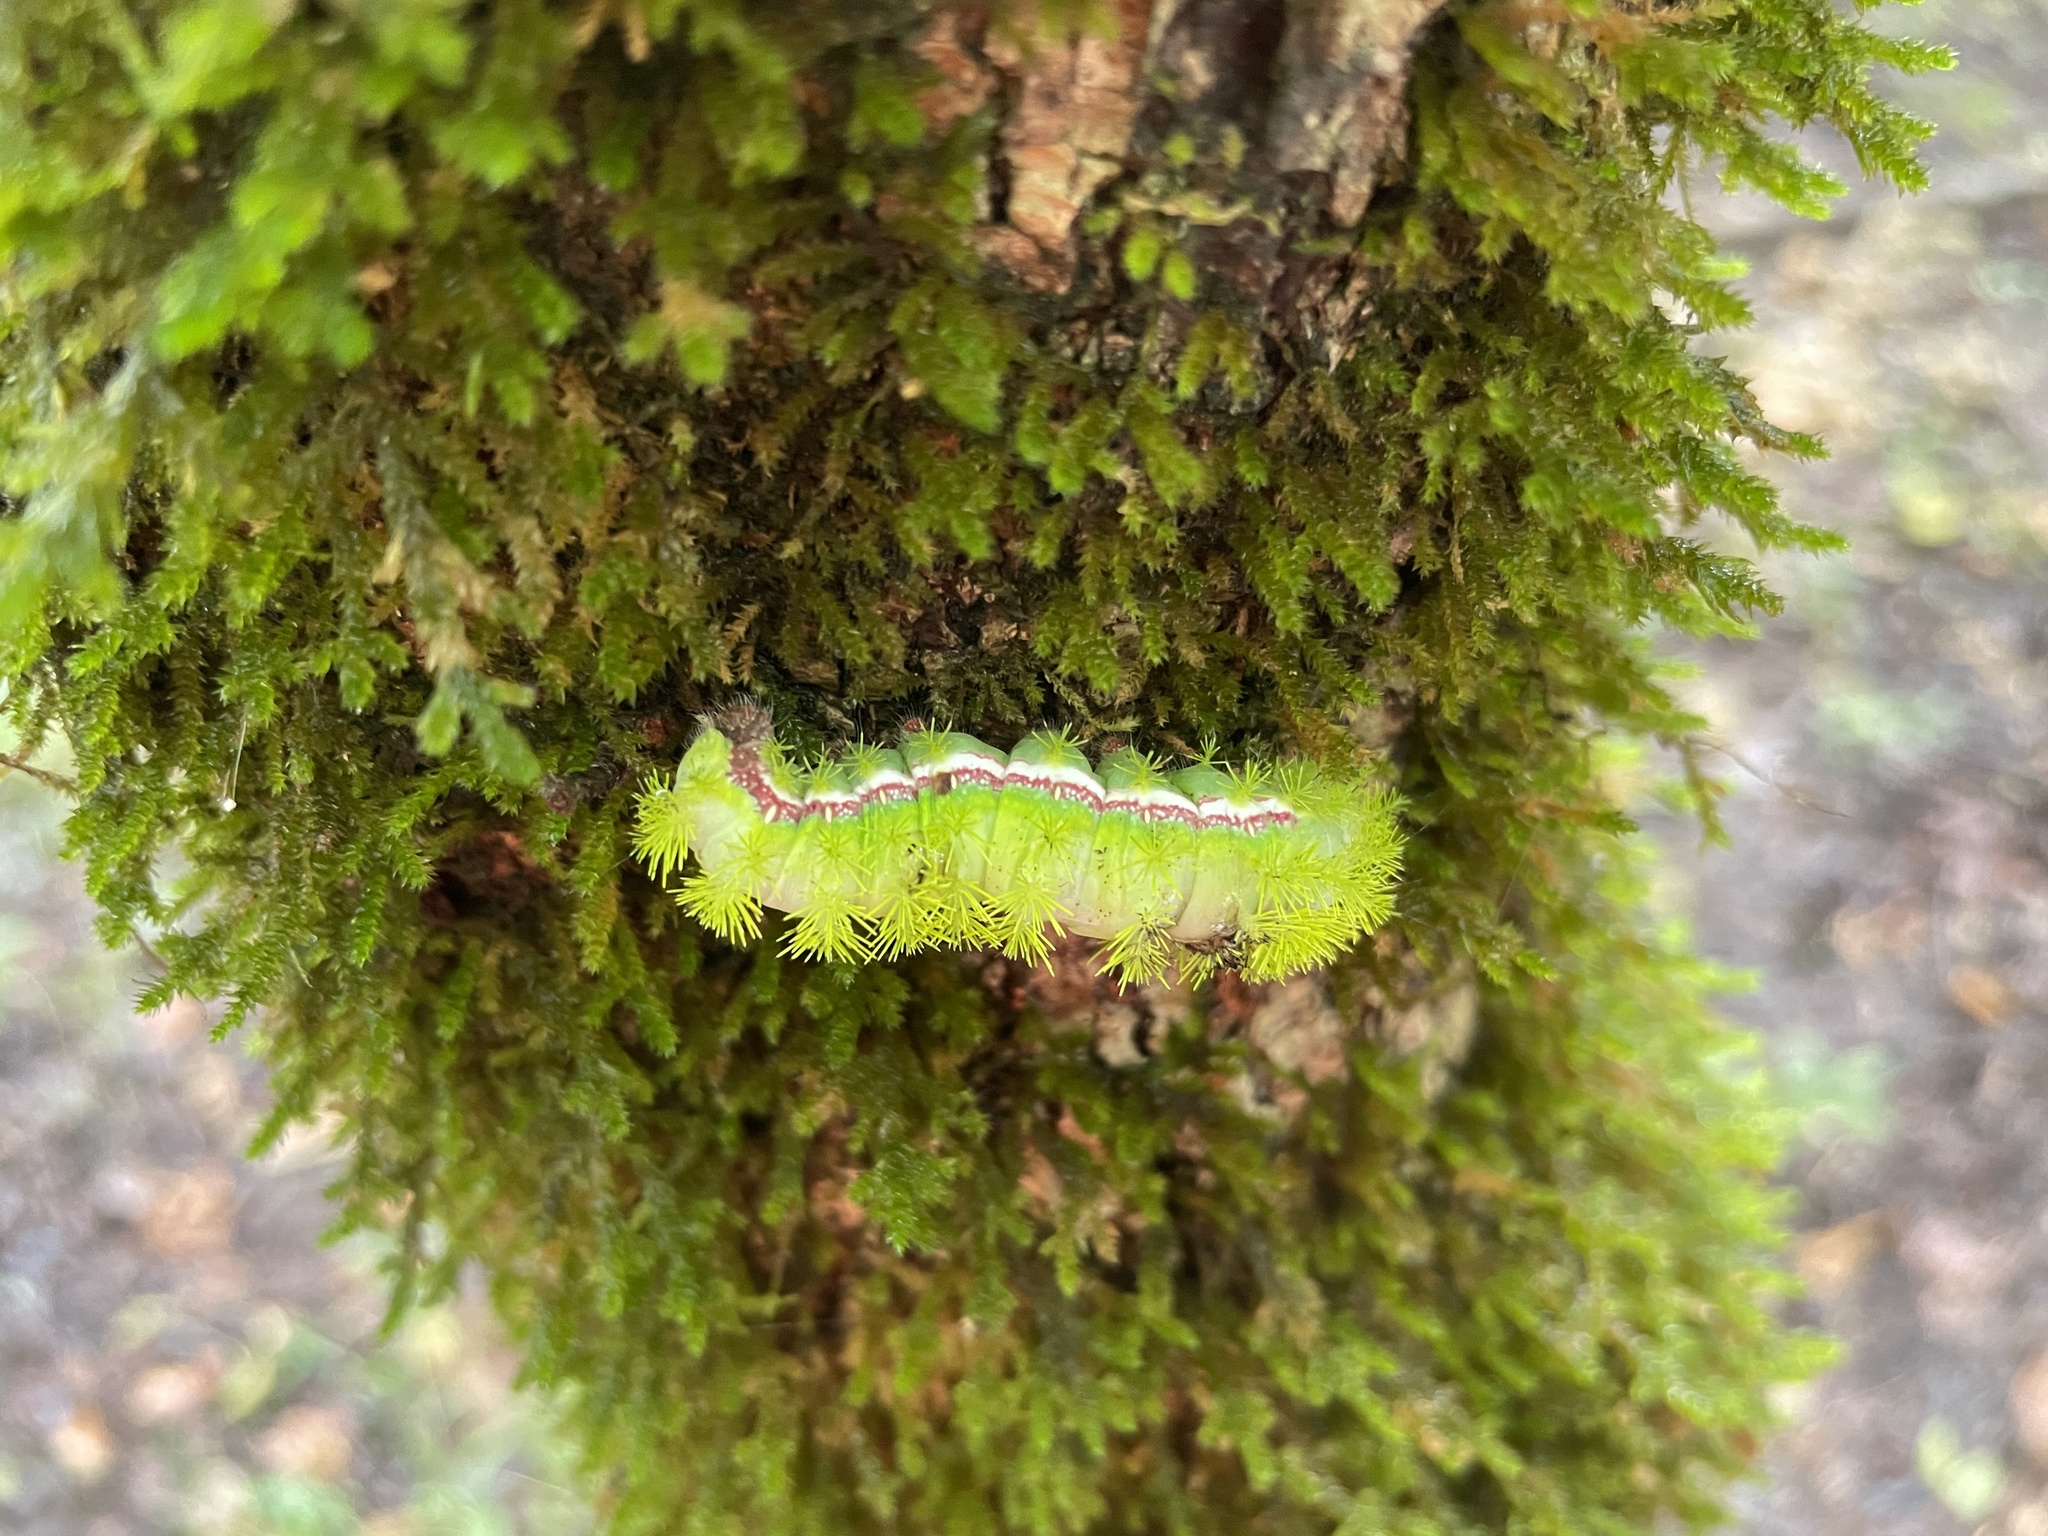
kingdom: Animalia
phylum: Arthropoda
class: Insecta
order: Lepidoptera
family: Saturniidae
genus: Automeris
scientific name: Automeris io
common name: Io moth
